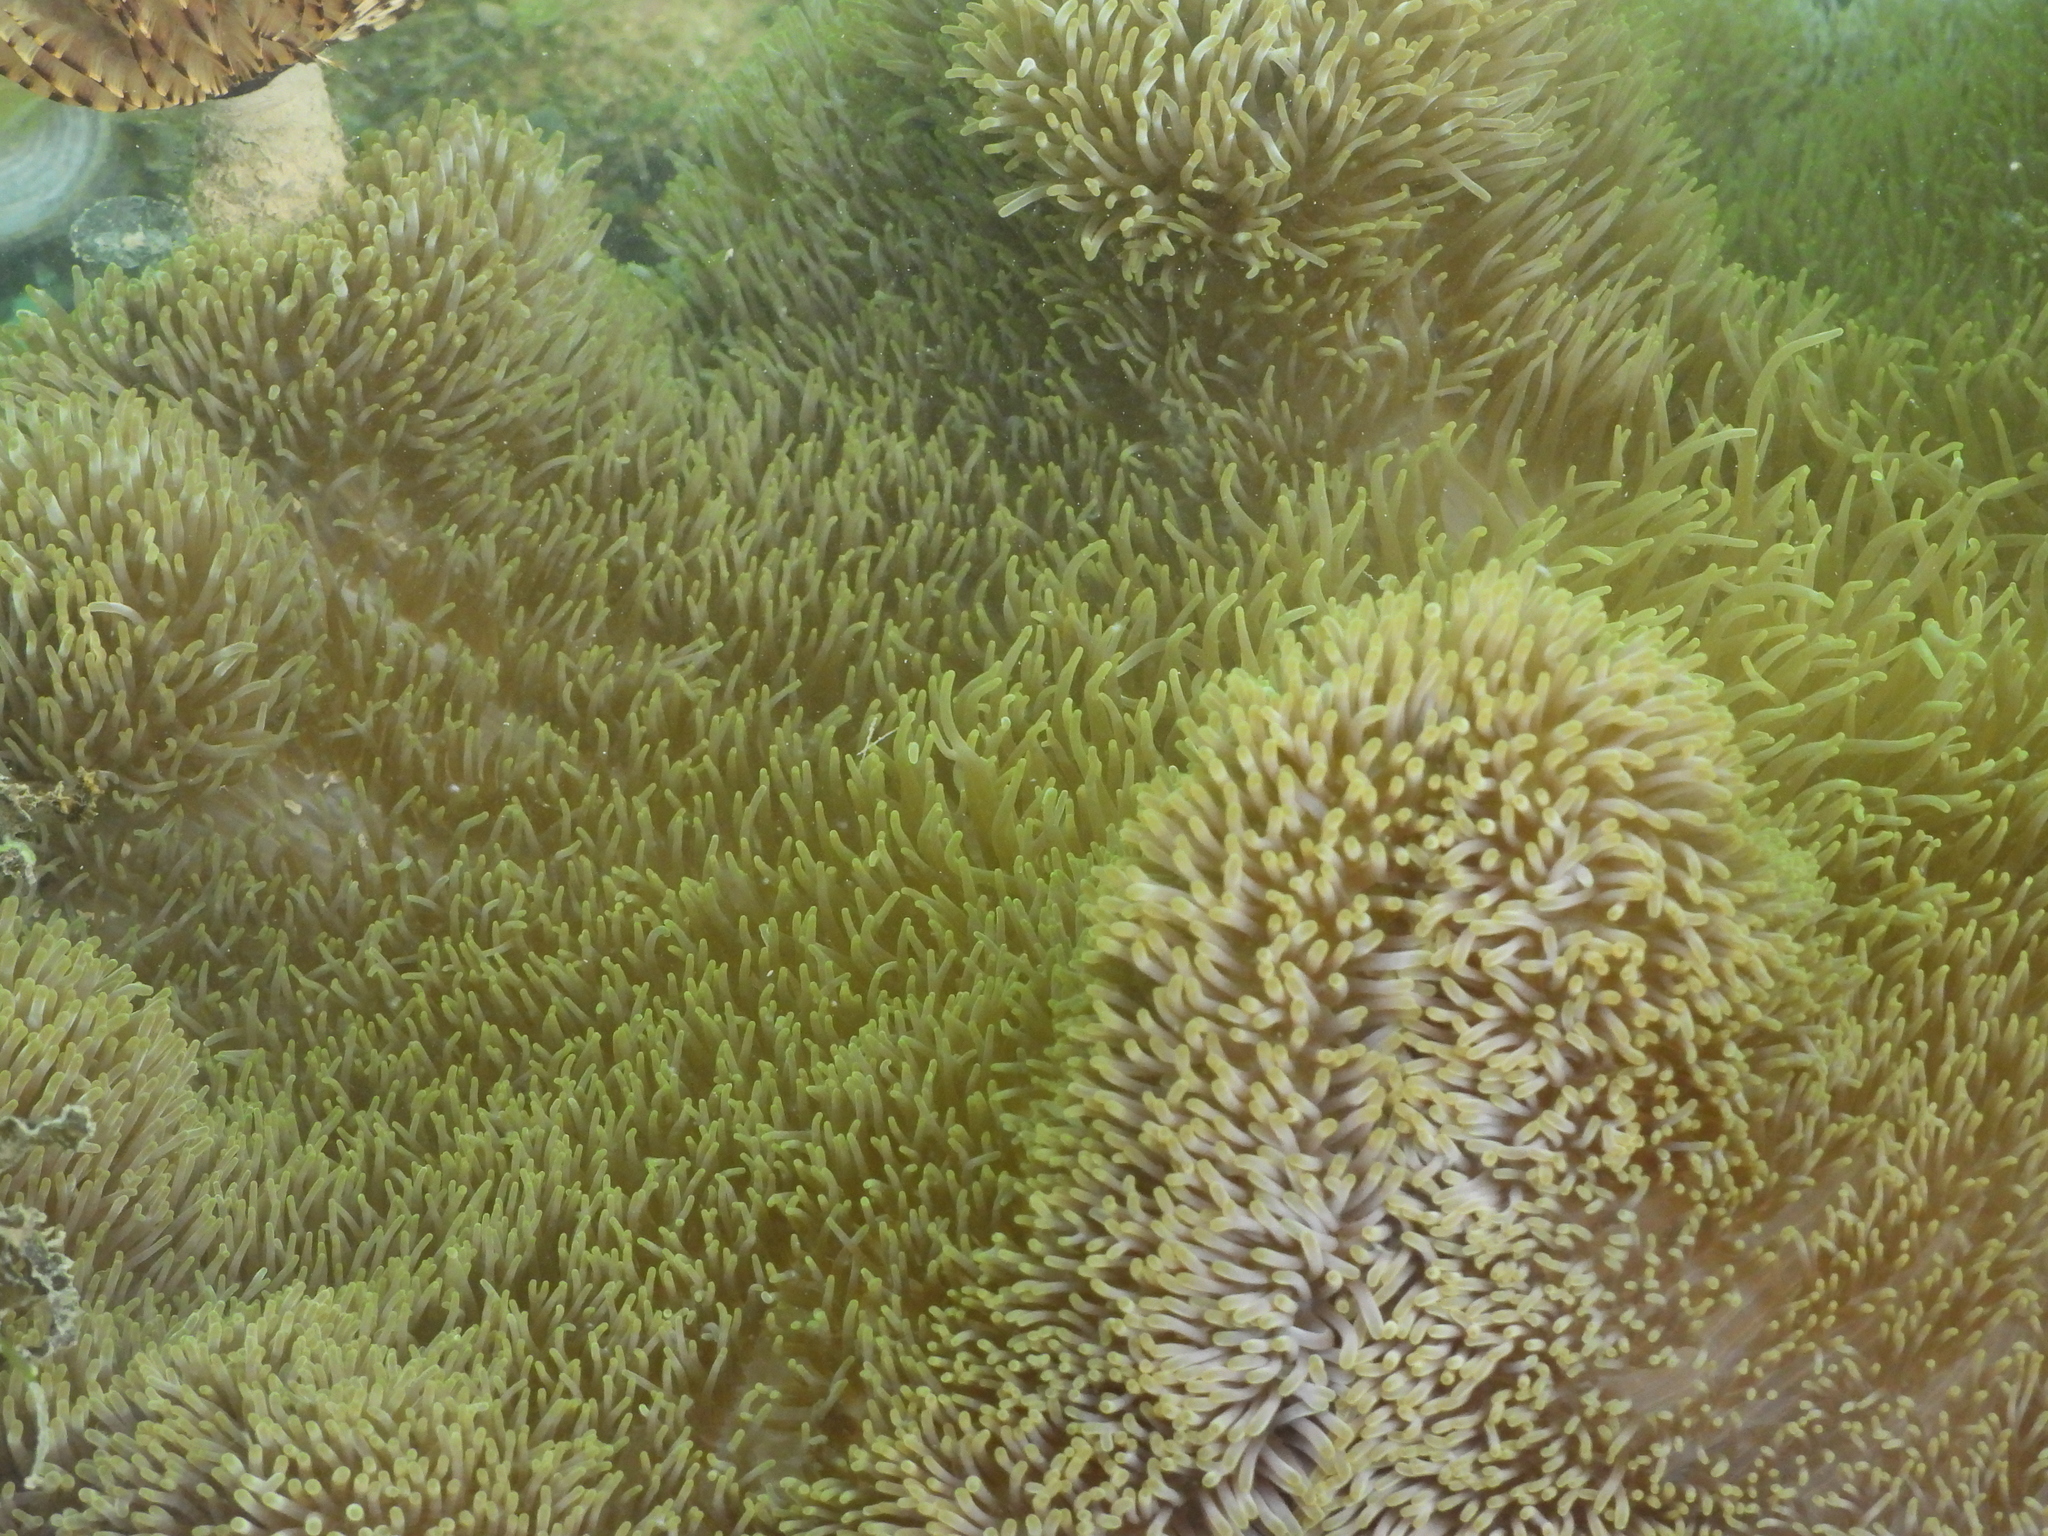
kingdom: Animalia
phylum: Cnidaria
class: Anthozoa
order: Actiniaria
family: Stichodactylidae
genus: Stichodactyla
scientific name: Stichodactyla gigantea
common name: Giant anemone
